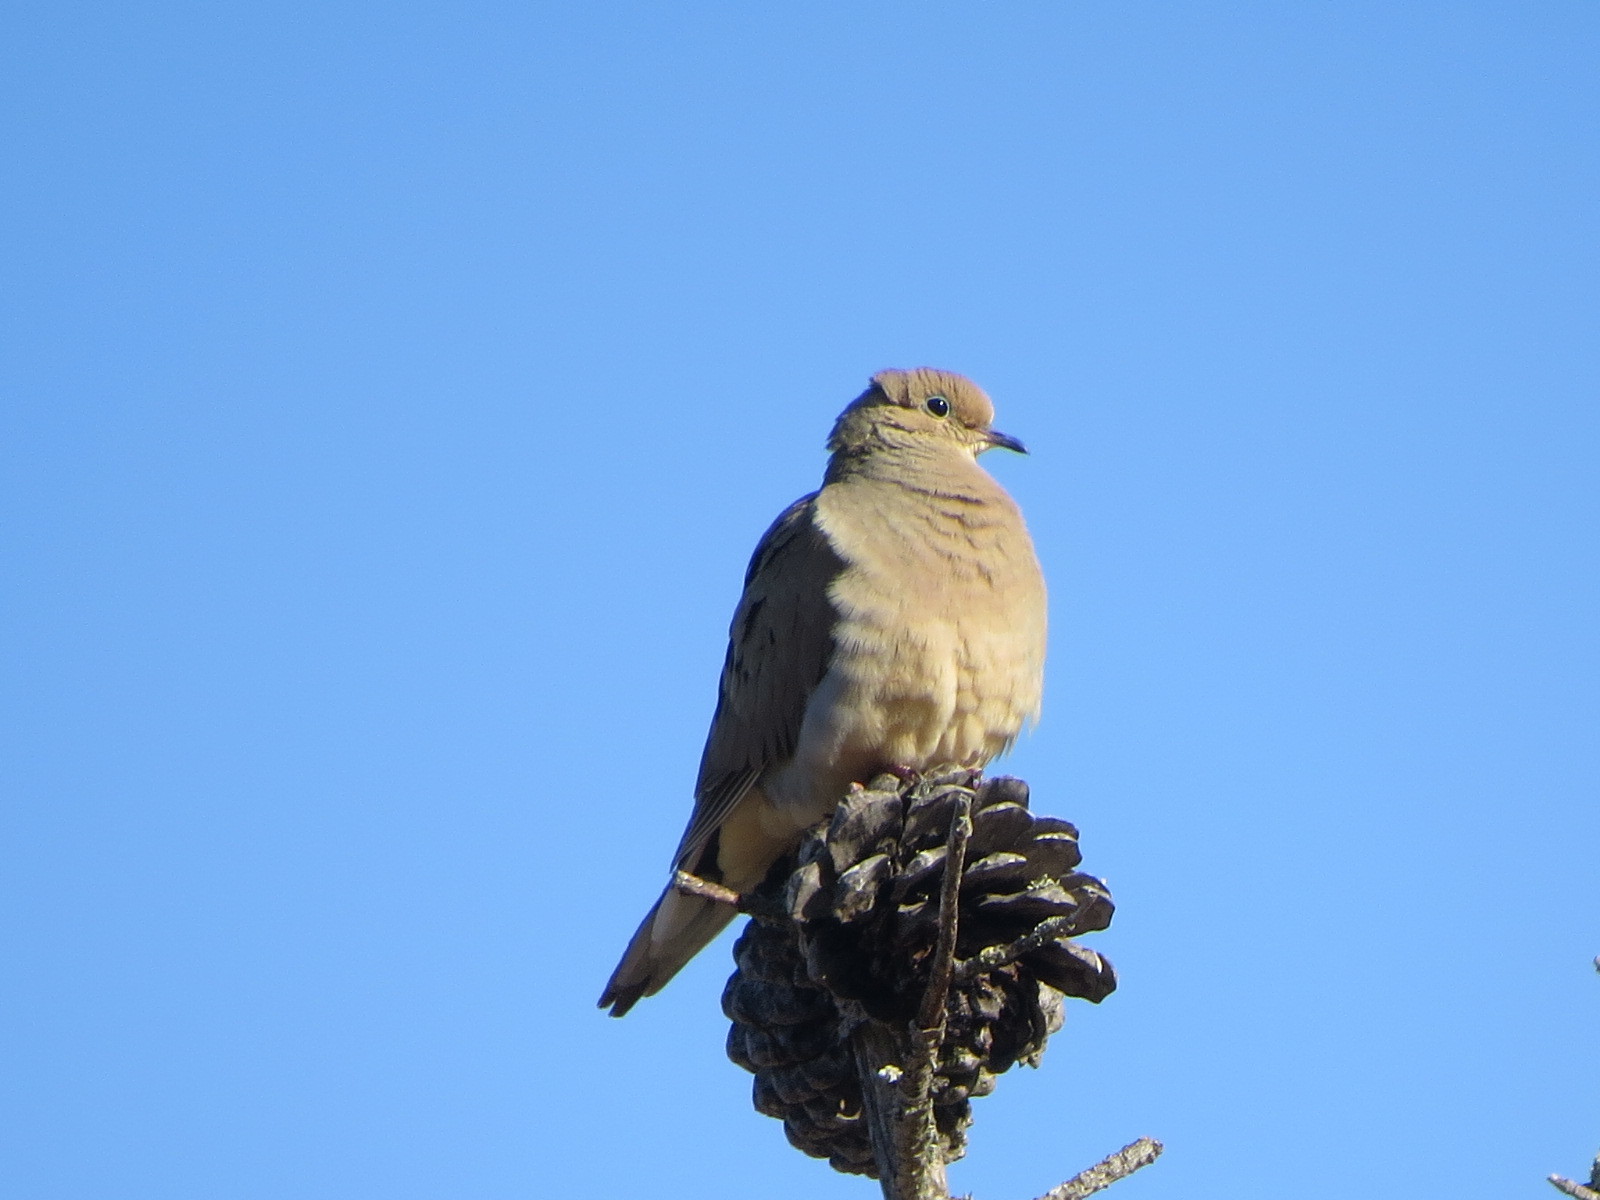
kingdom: Animalia
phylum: Chordata
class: Aves
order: Columbiformes
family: Columbidae
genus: Zenaida
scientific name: Zenaida macroura
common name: Mourning dove
